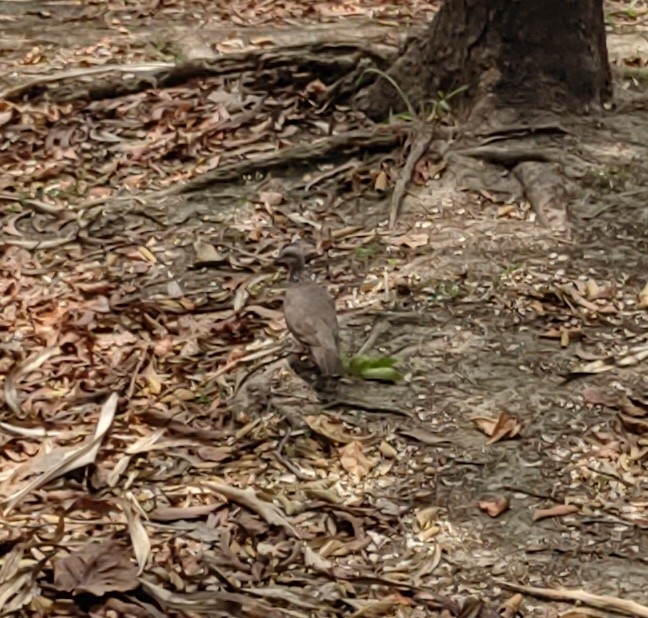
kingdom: Animalia
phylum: Chordata
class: Aves
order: Columbiformes
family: Columbidae
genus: Spilopelia
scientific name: Spilopelia chinensis
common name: Spotted dove
